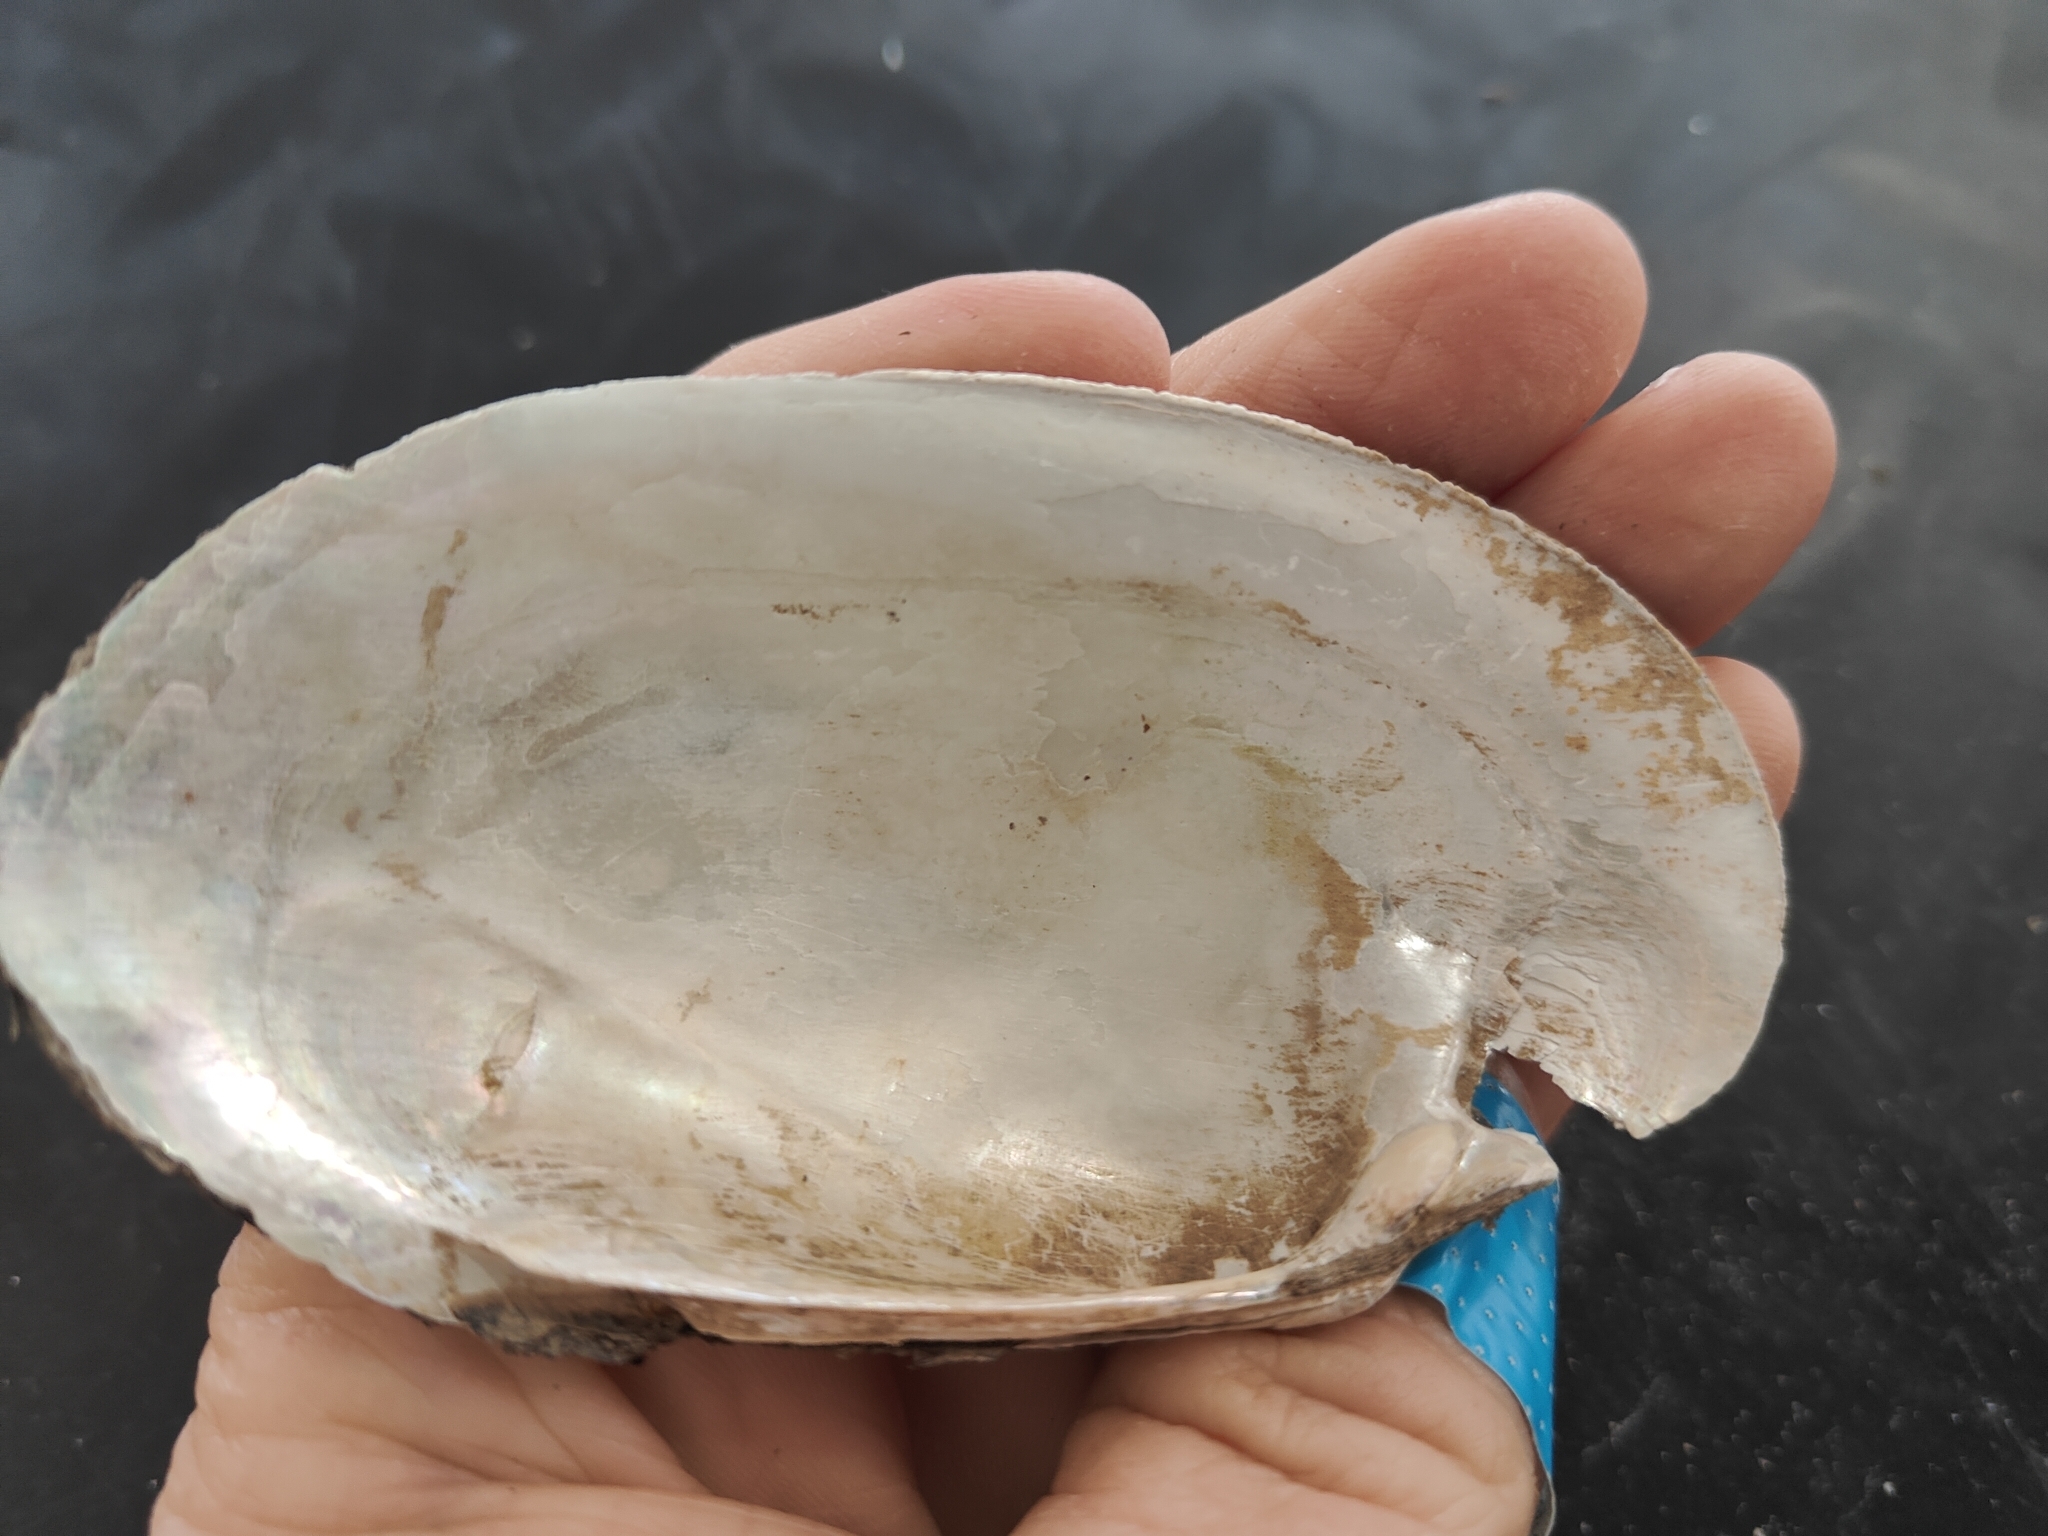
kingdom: Animalia
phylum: Mollusca
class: Bivalvia
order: Unionida
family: Unionidae
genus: Lampsilis
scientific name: Lampsilis siliquoidea
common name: Fatmucket
